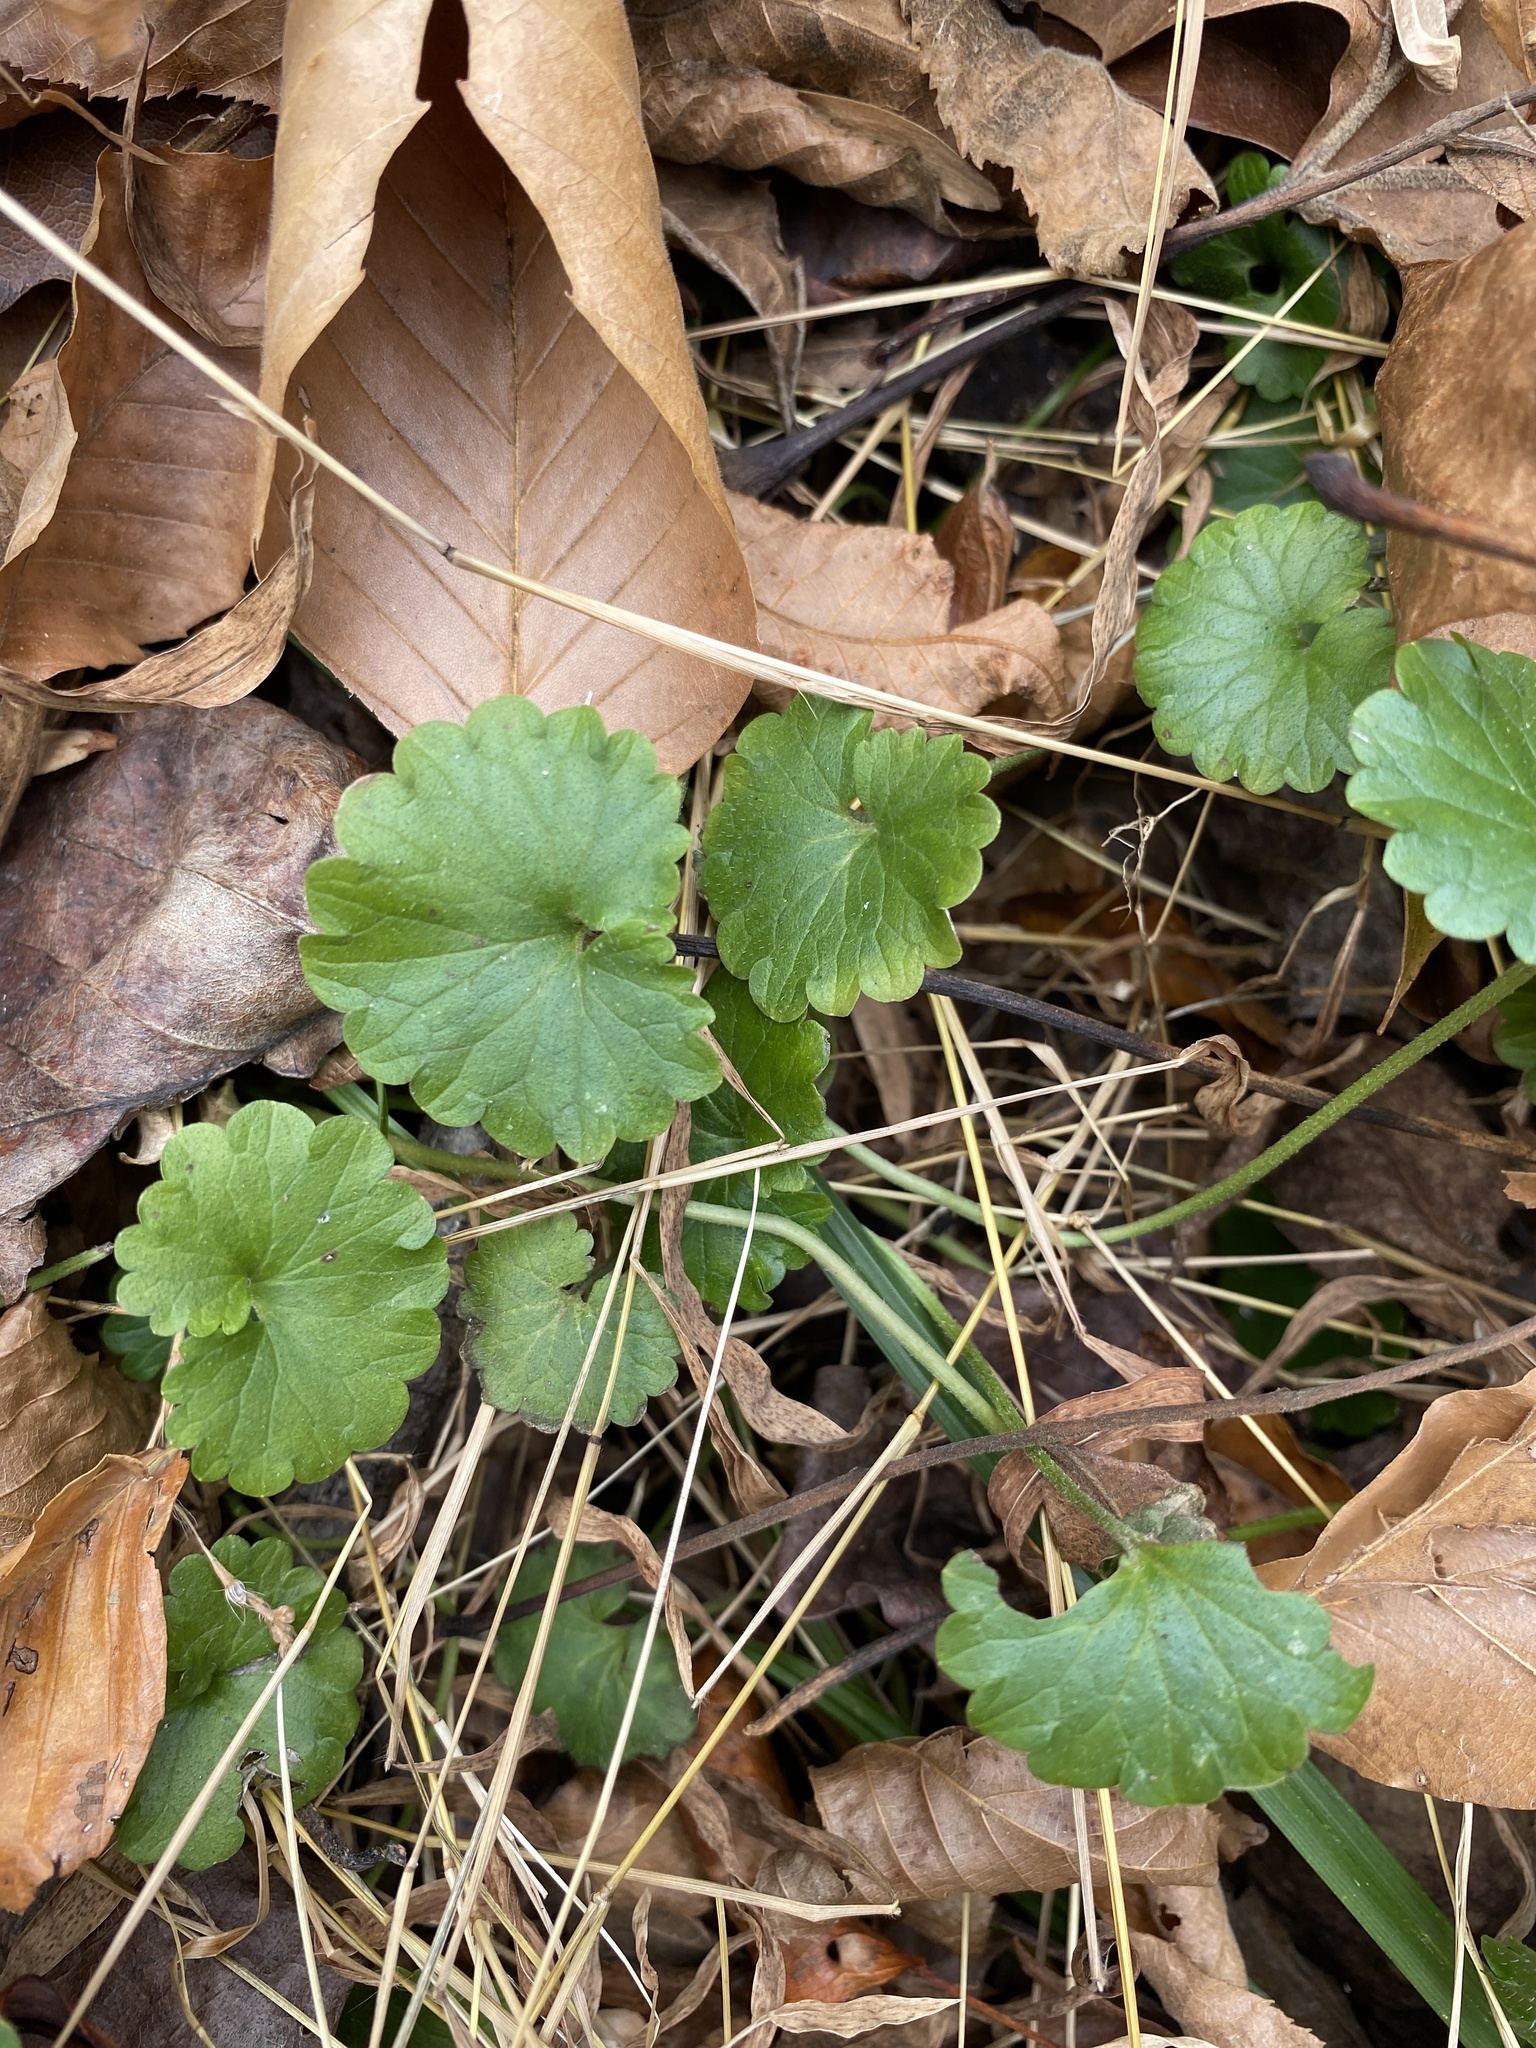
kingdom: Plantae
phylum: Tracheophyta
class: Magnoliopsida
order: Lamiales
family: Lamiaceae
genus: Glechoma
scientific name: Glechoma hederacea
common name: Ground ivy
